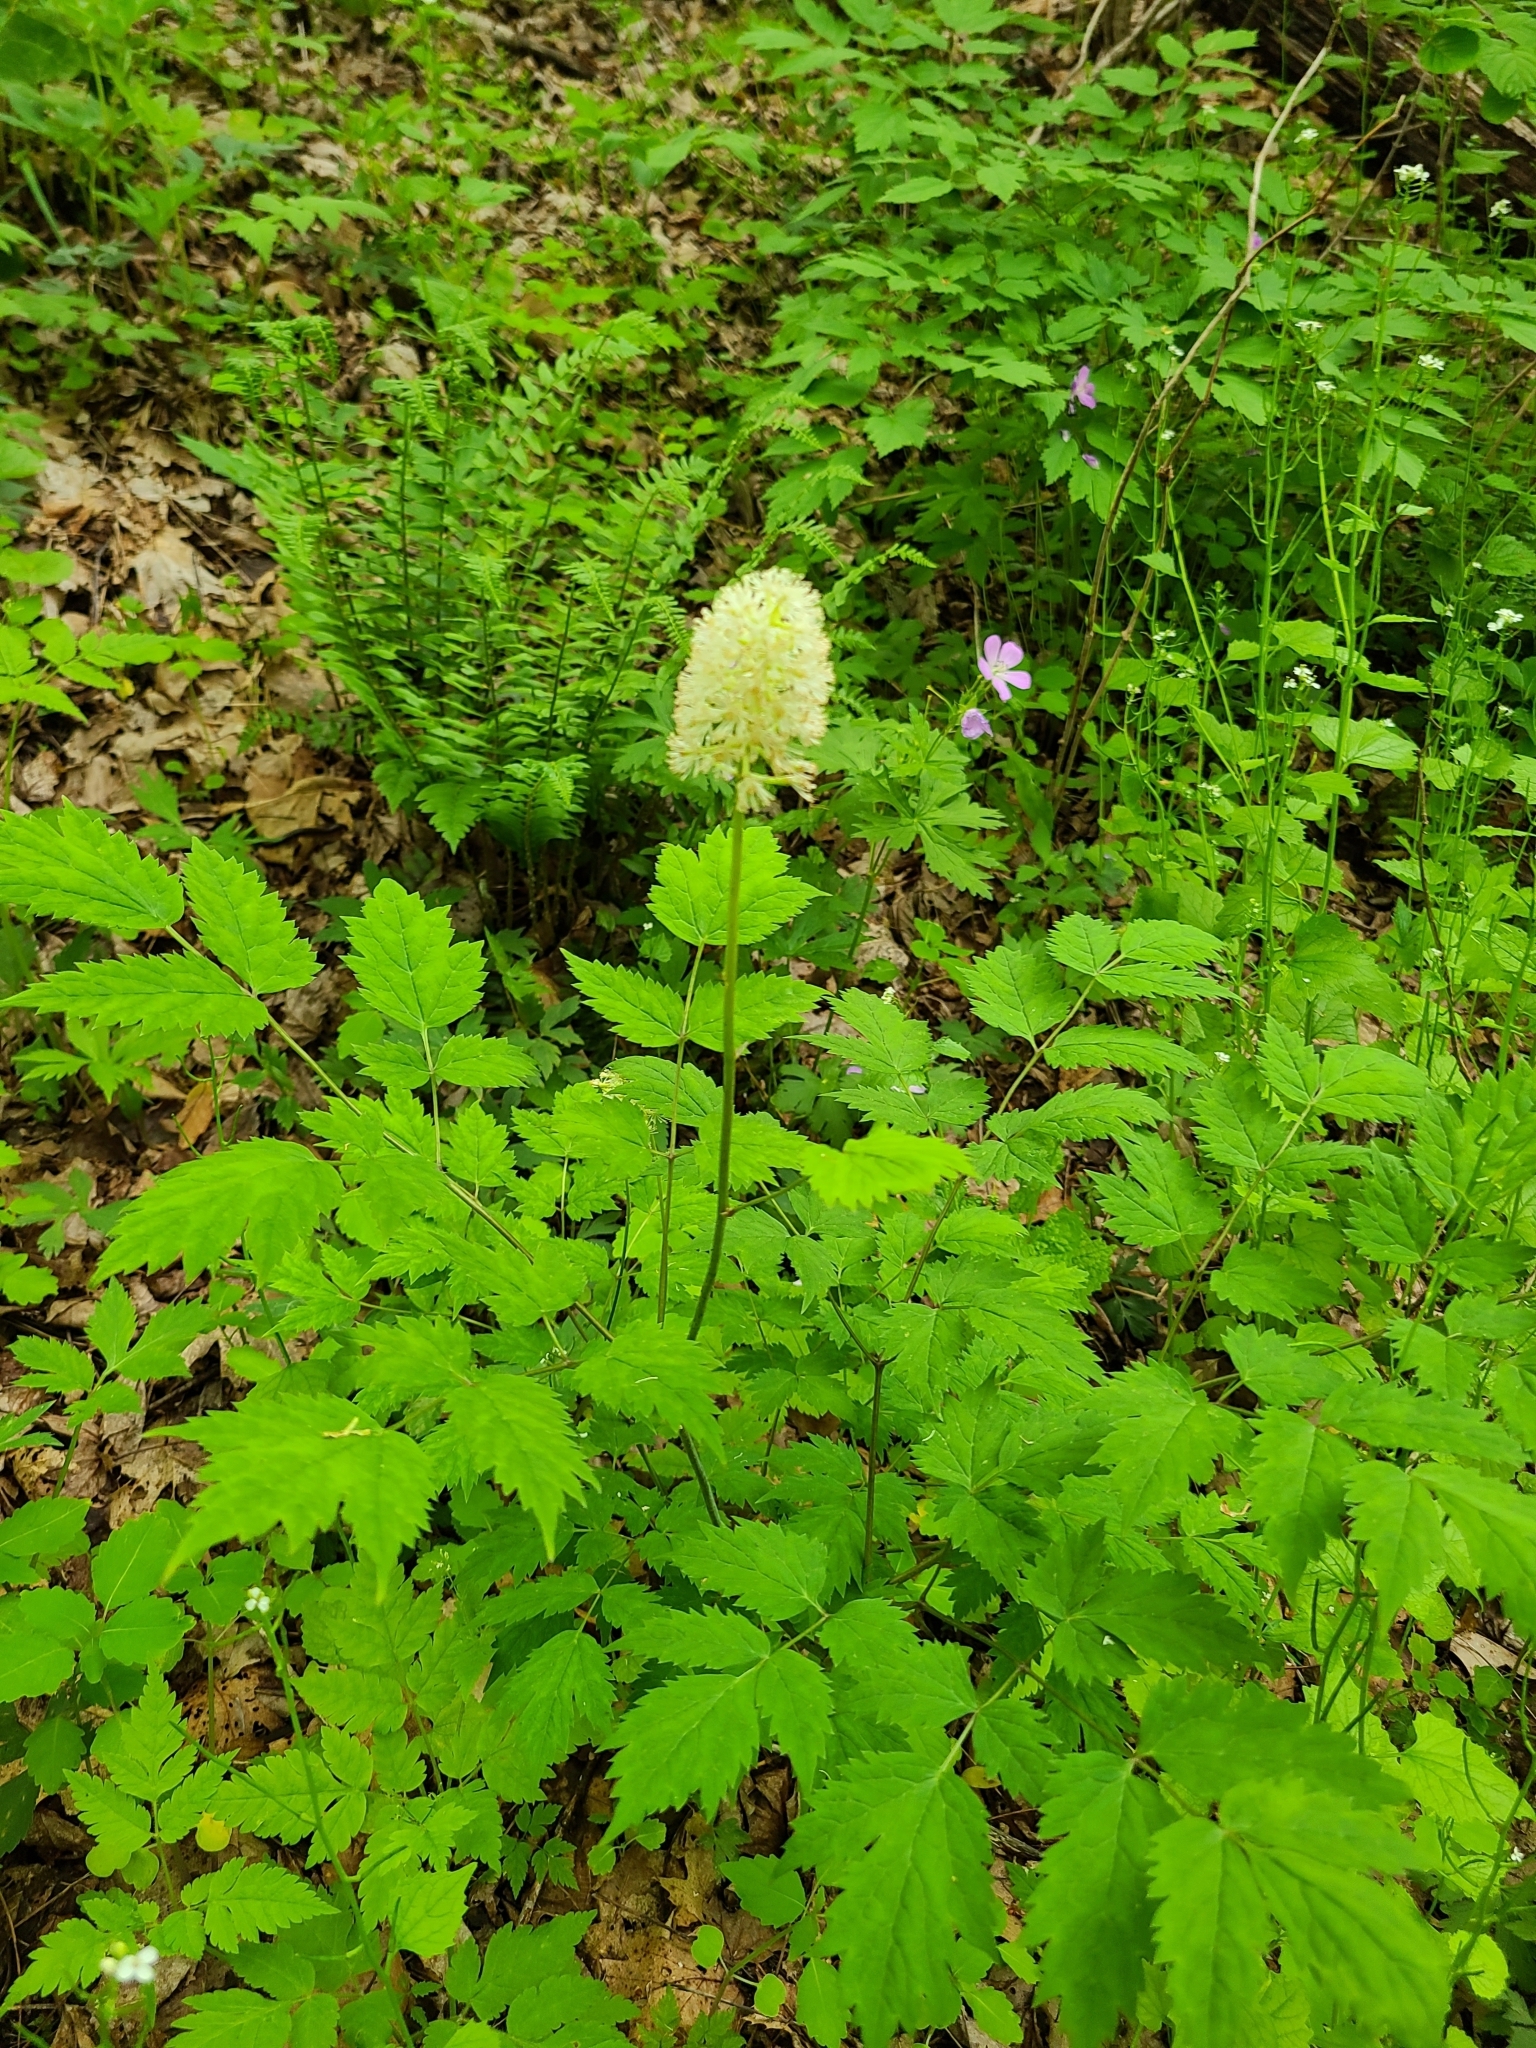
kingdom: Plantae
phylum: Tracheophyta
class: Magnoliopsida
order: Ranunculales
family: Ranunculaceae
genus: Actaea
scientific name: Actaea pachypoda
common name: Doll's-eyes
